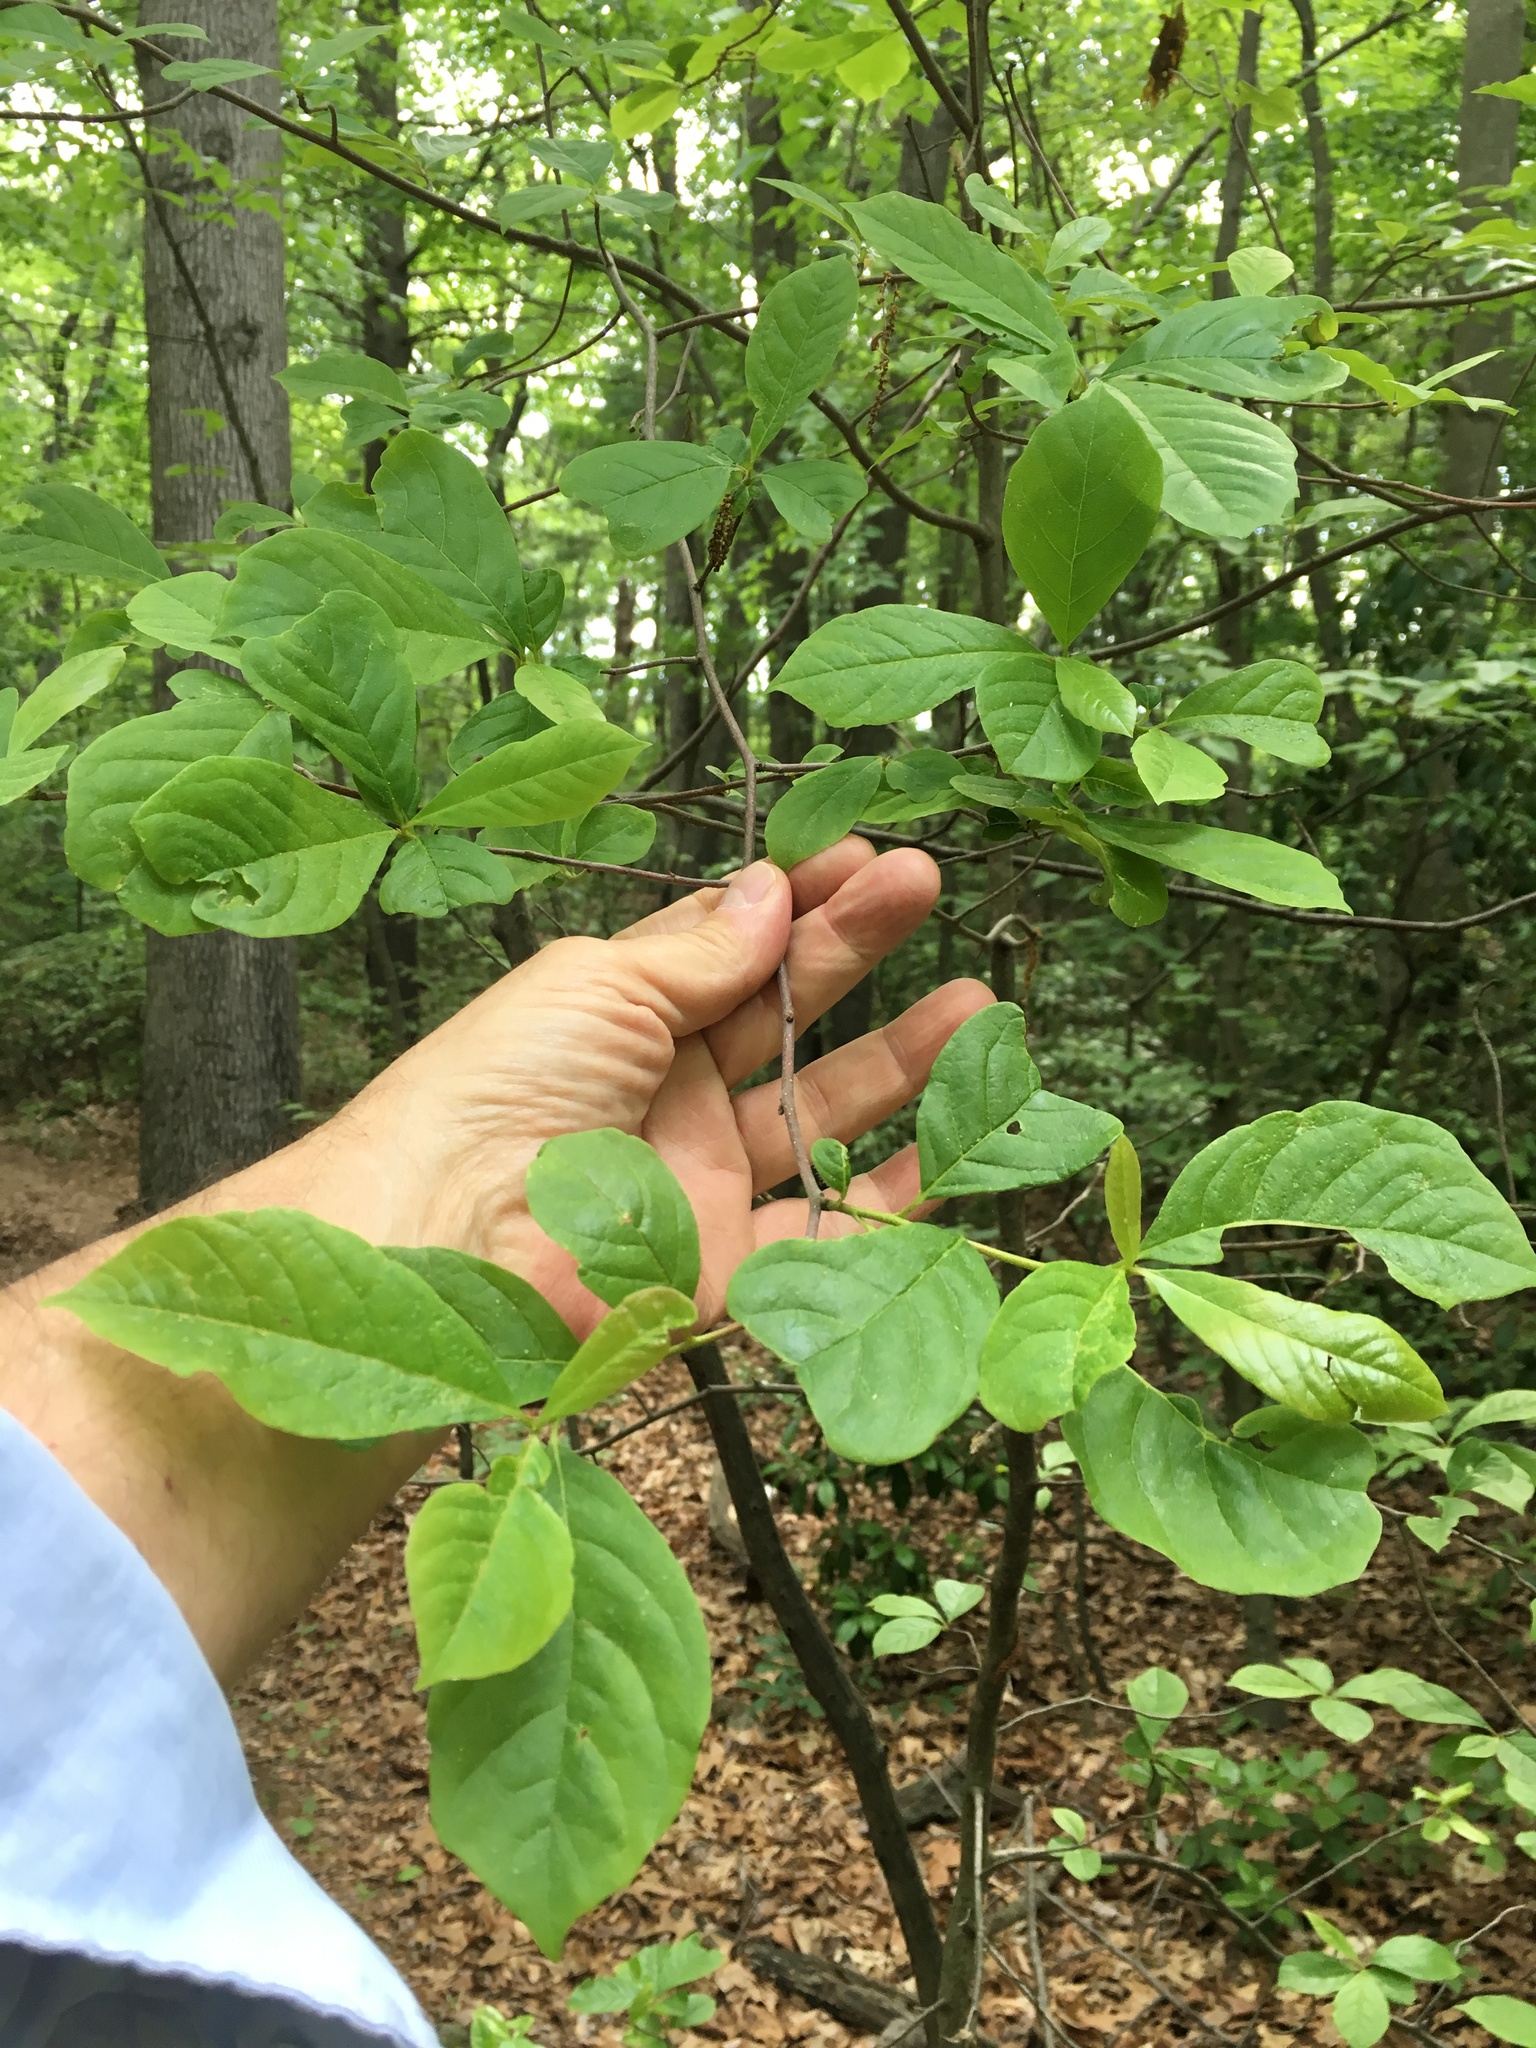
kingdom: Plantae
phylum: Tracheophyta
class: Magnoliopsida
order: Ericales
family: Ericaceae
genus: Vaccinium
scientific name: Vaccinium corymbosum
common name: Blueberry
